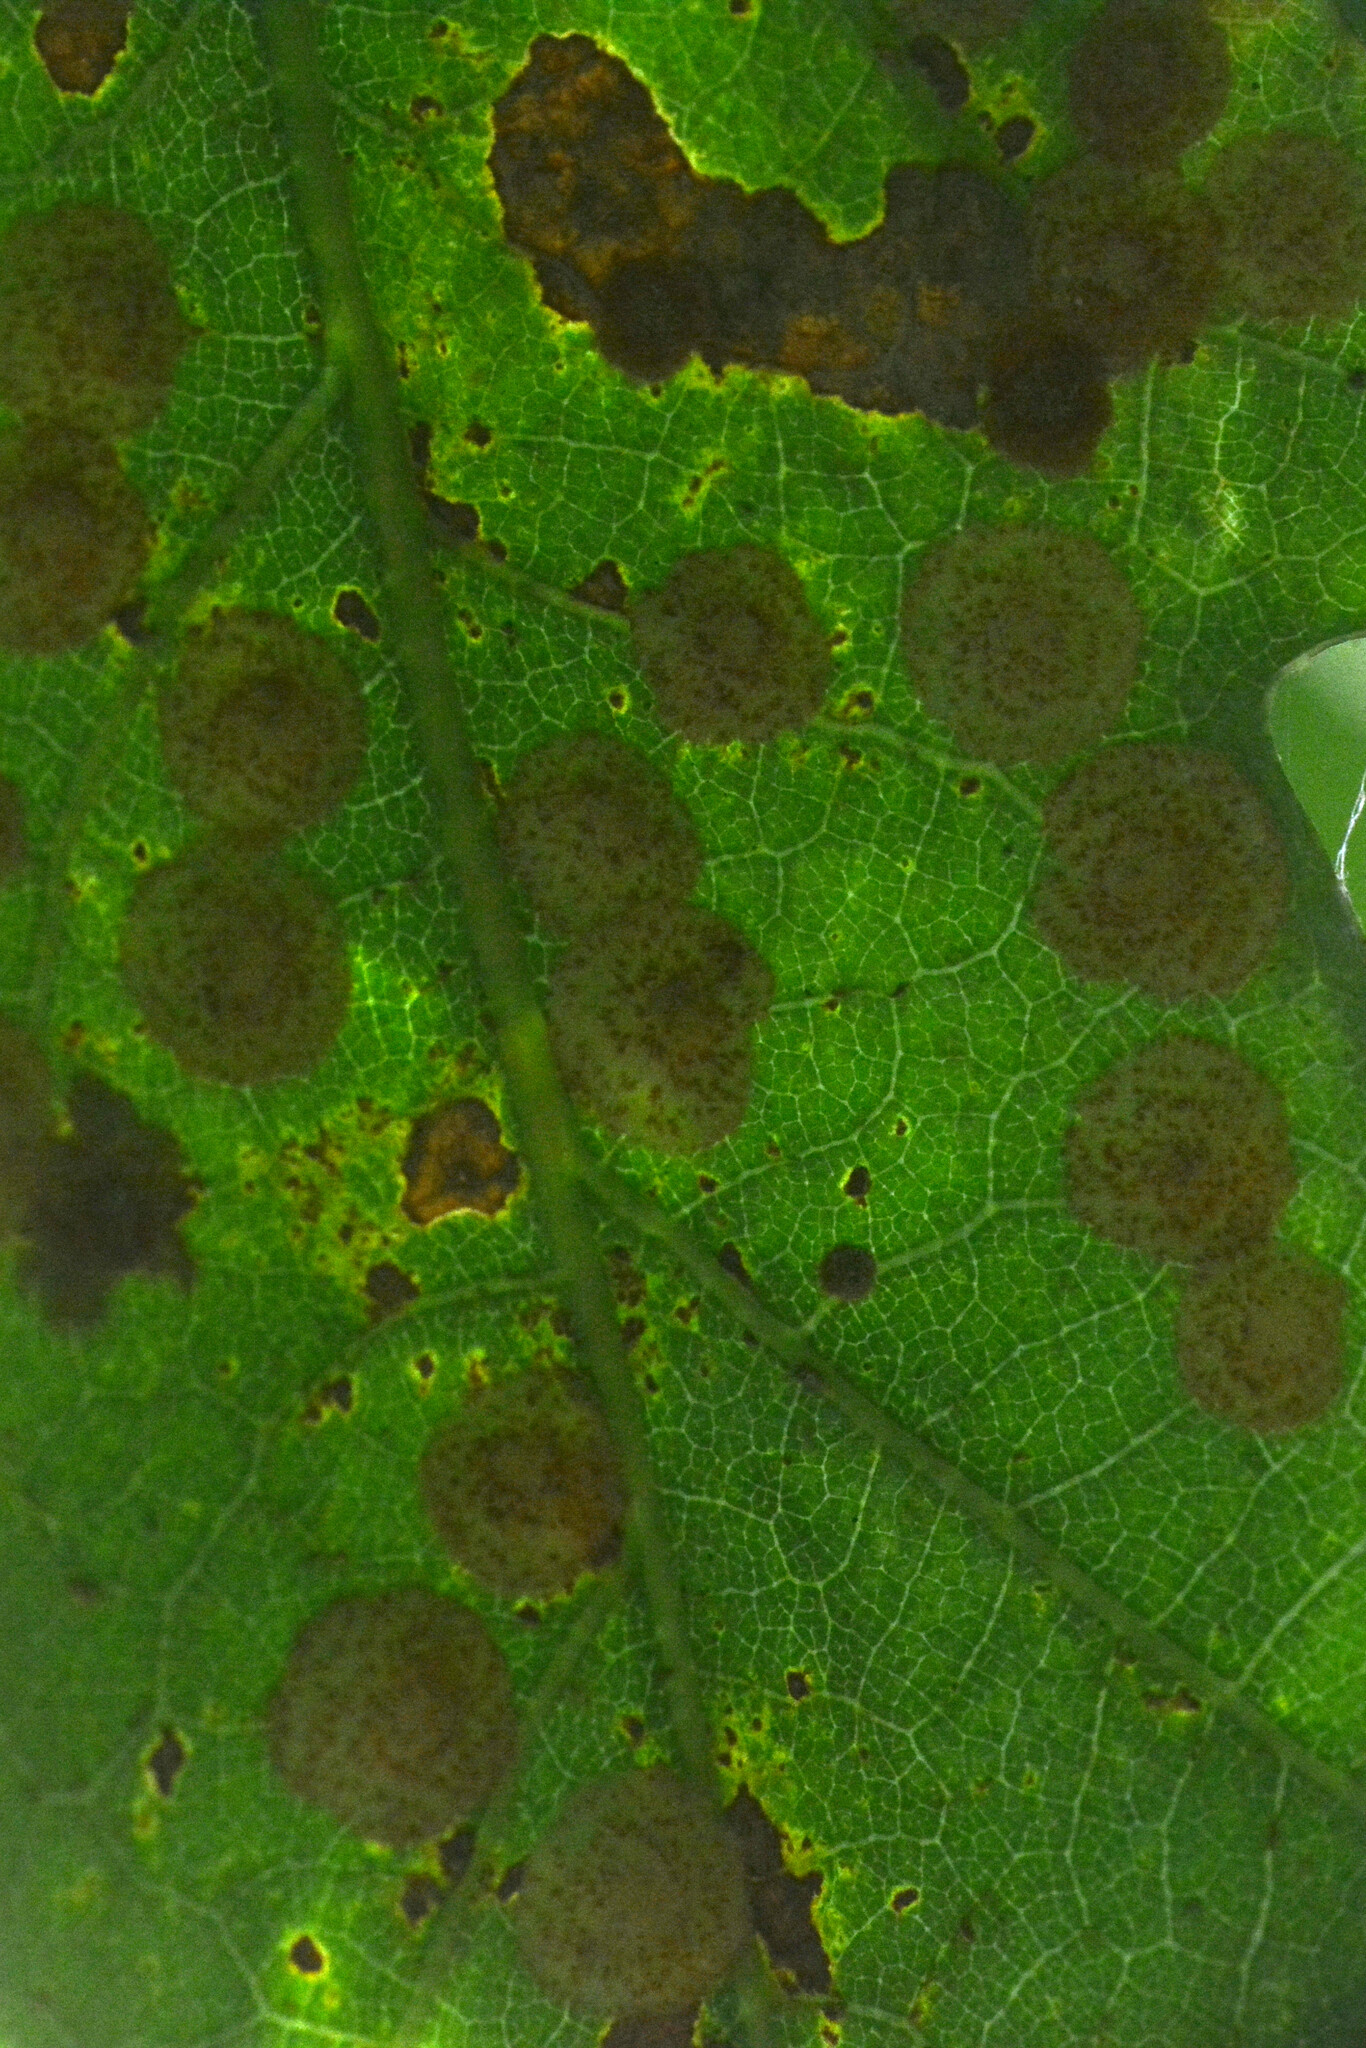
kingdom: Animalia
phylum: Arthropoda
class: Insecta
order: Hymenoptera
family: Cynipidae
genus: Neuroterus
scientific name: Neuroterus quercusbaccarum
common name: Common spangle gall
